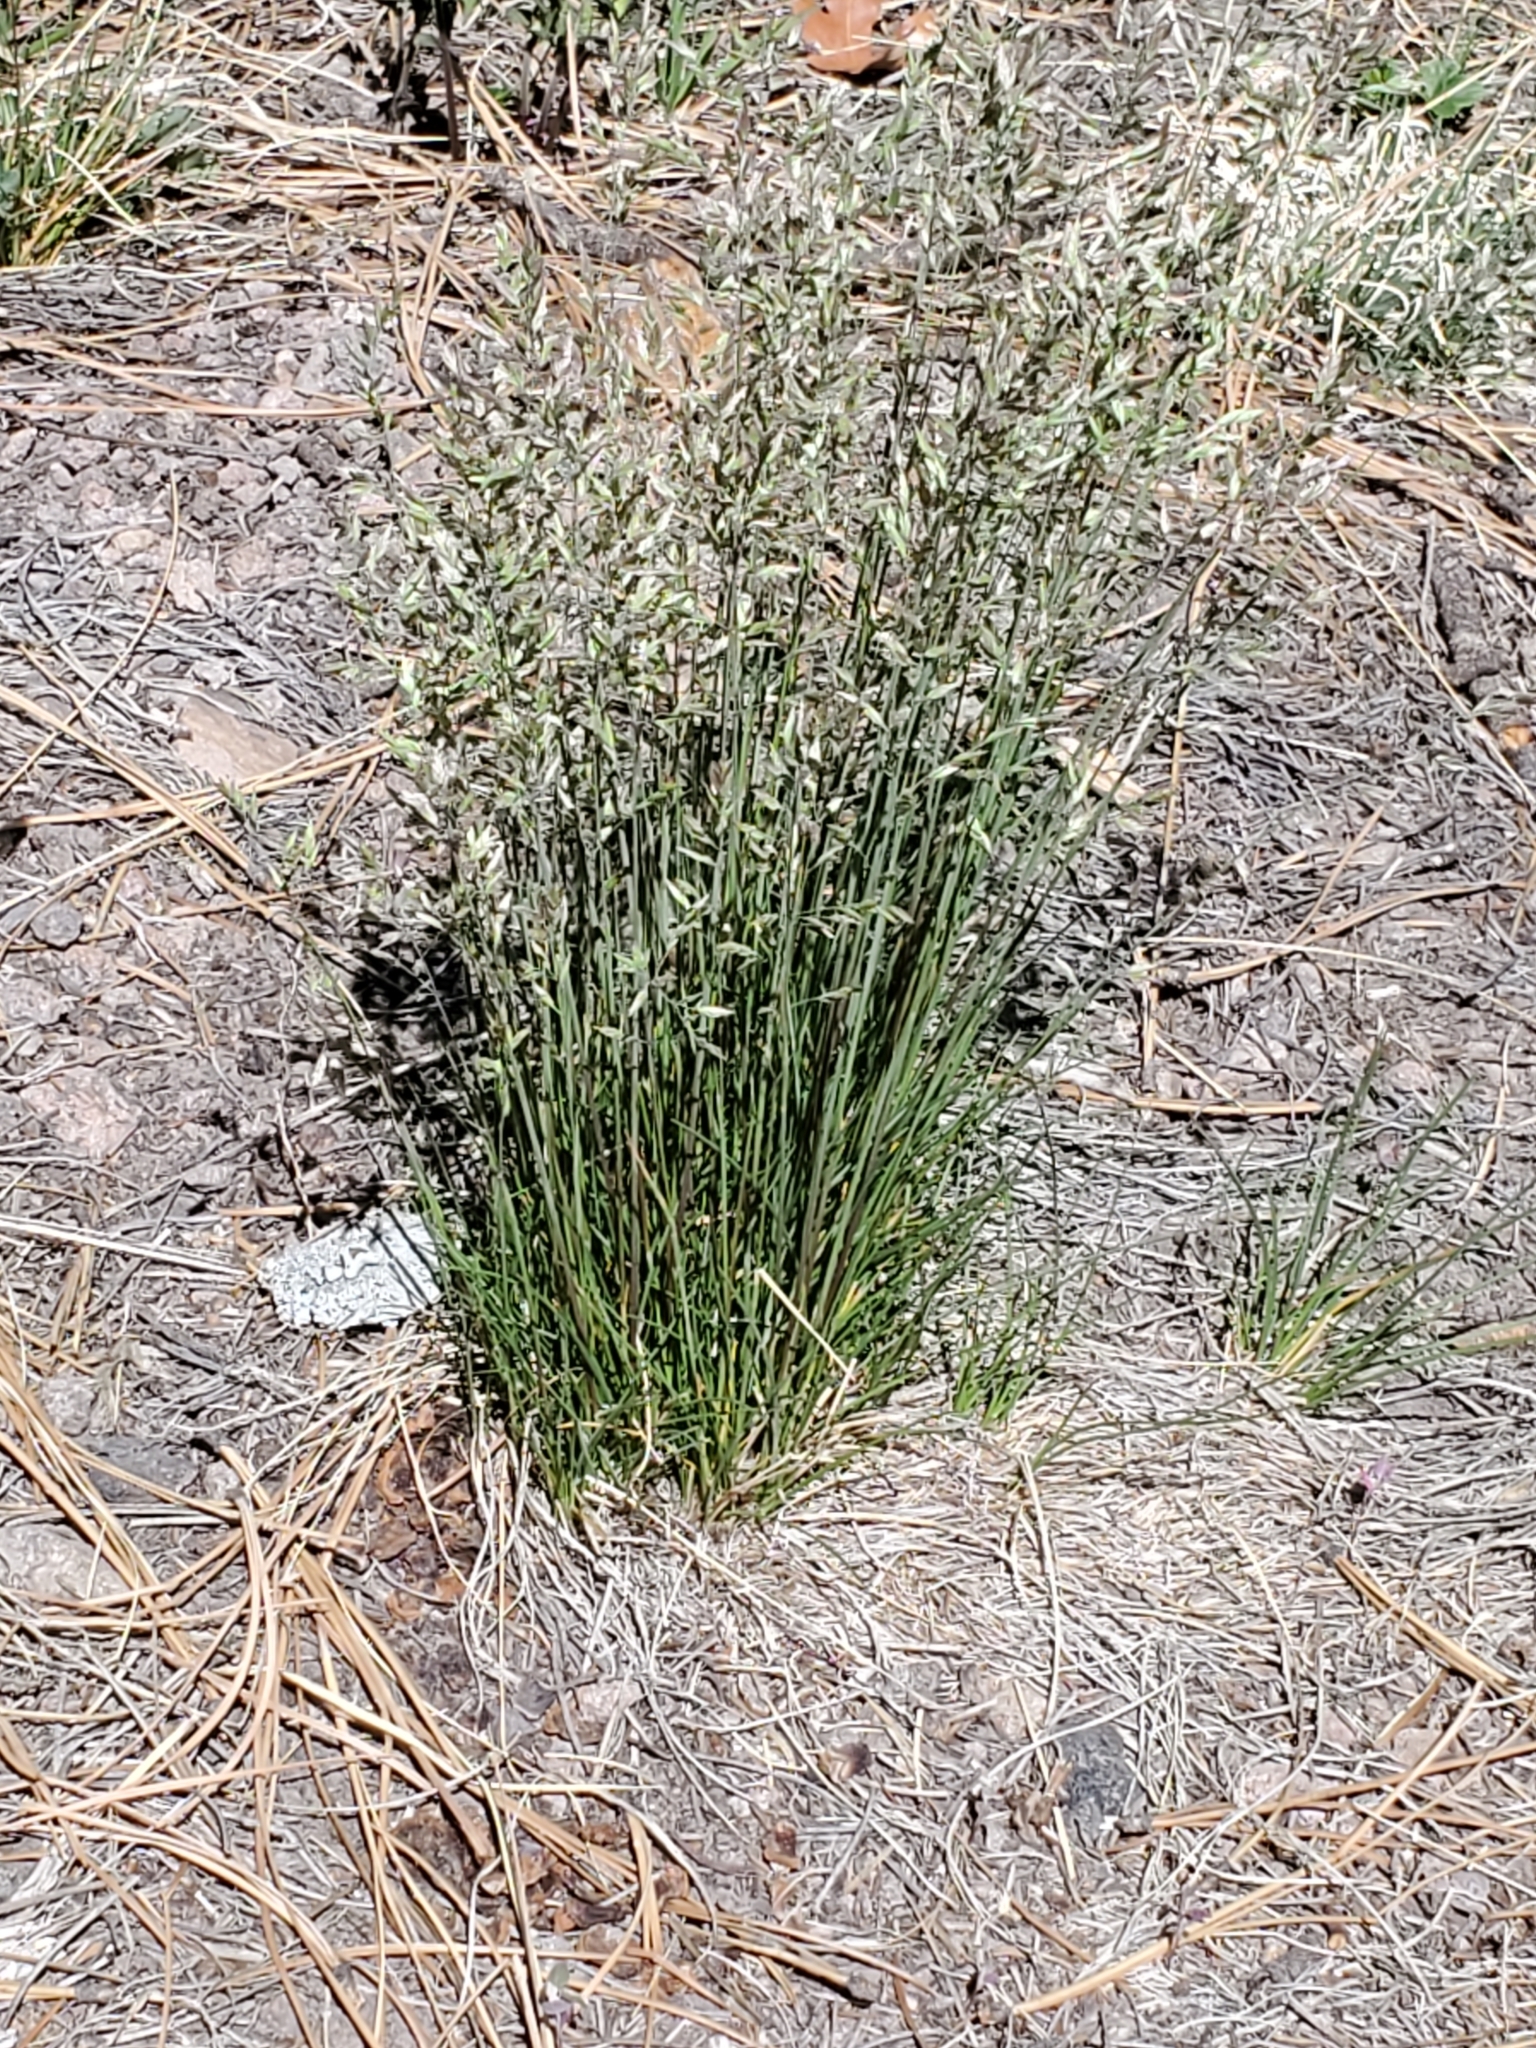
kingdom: Plantae
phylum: Tracheophyta
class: Liliopsida
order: Poales
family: Poaceae
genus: Poa
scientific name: Poa fendleriana
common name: Mutton bluegrass
